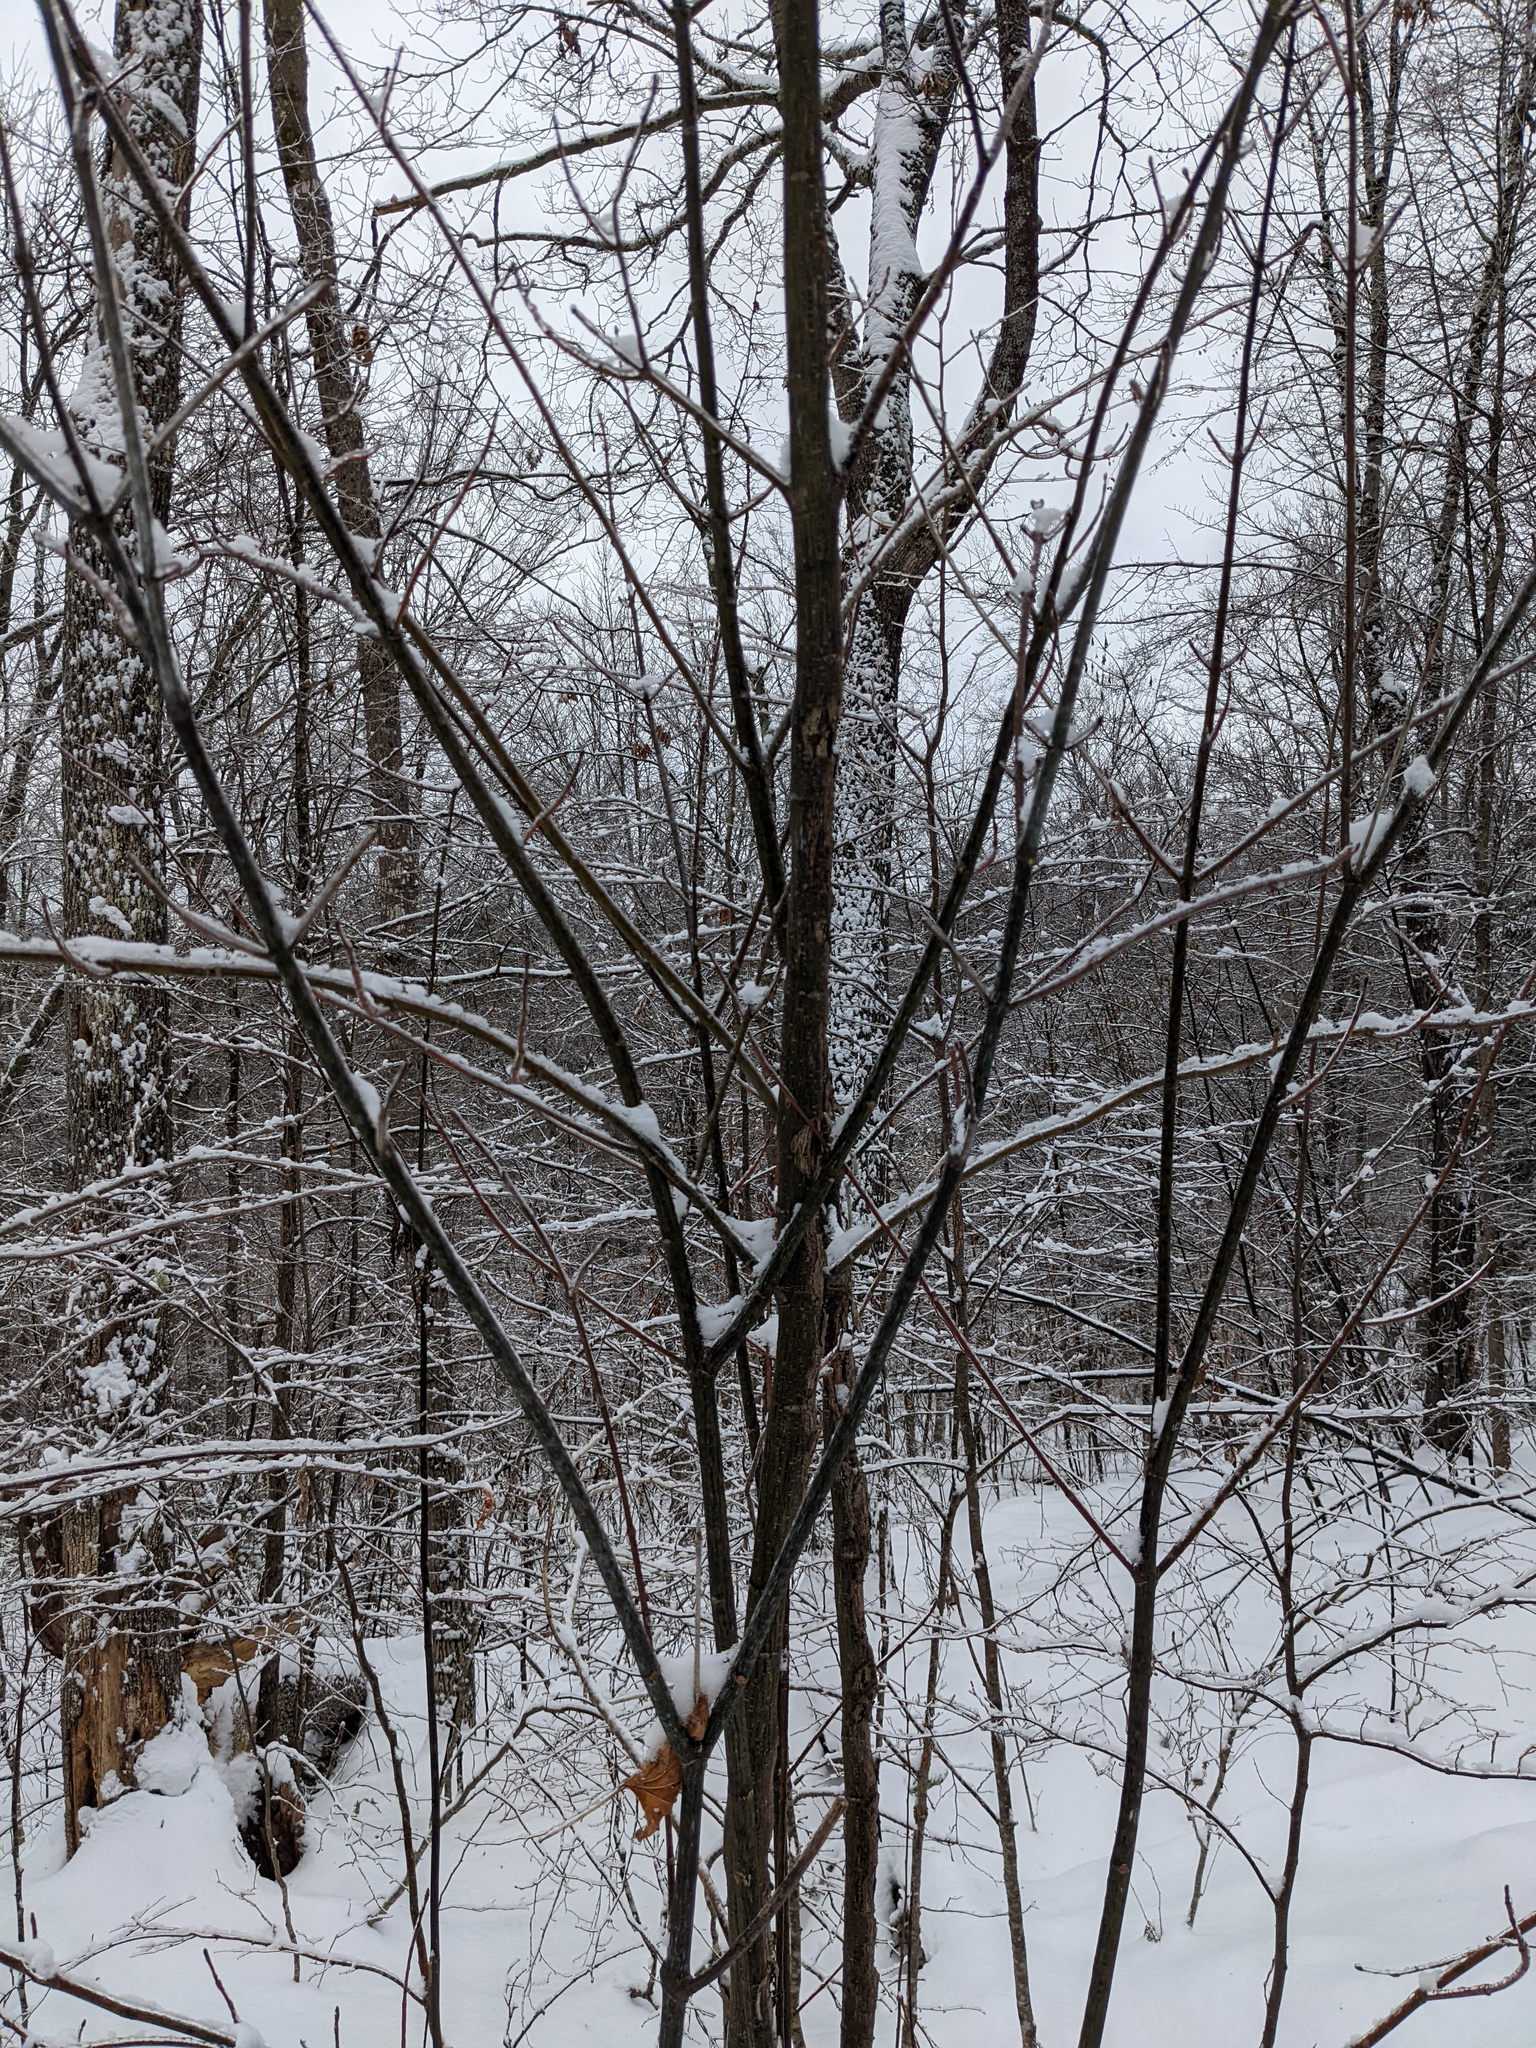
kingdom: Plantae
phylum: Tracheophyta
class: Magnoliopsida
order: Sapindales
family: Sapindaceae
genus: Acer
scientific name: Acer pensylvanicum
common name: Moosewood
